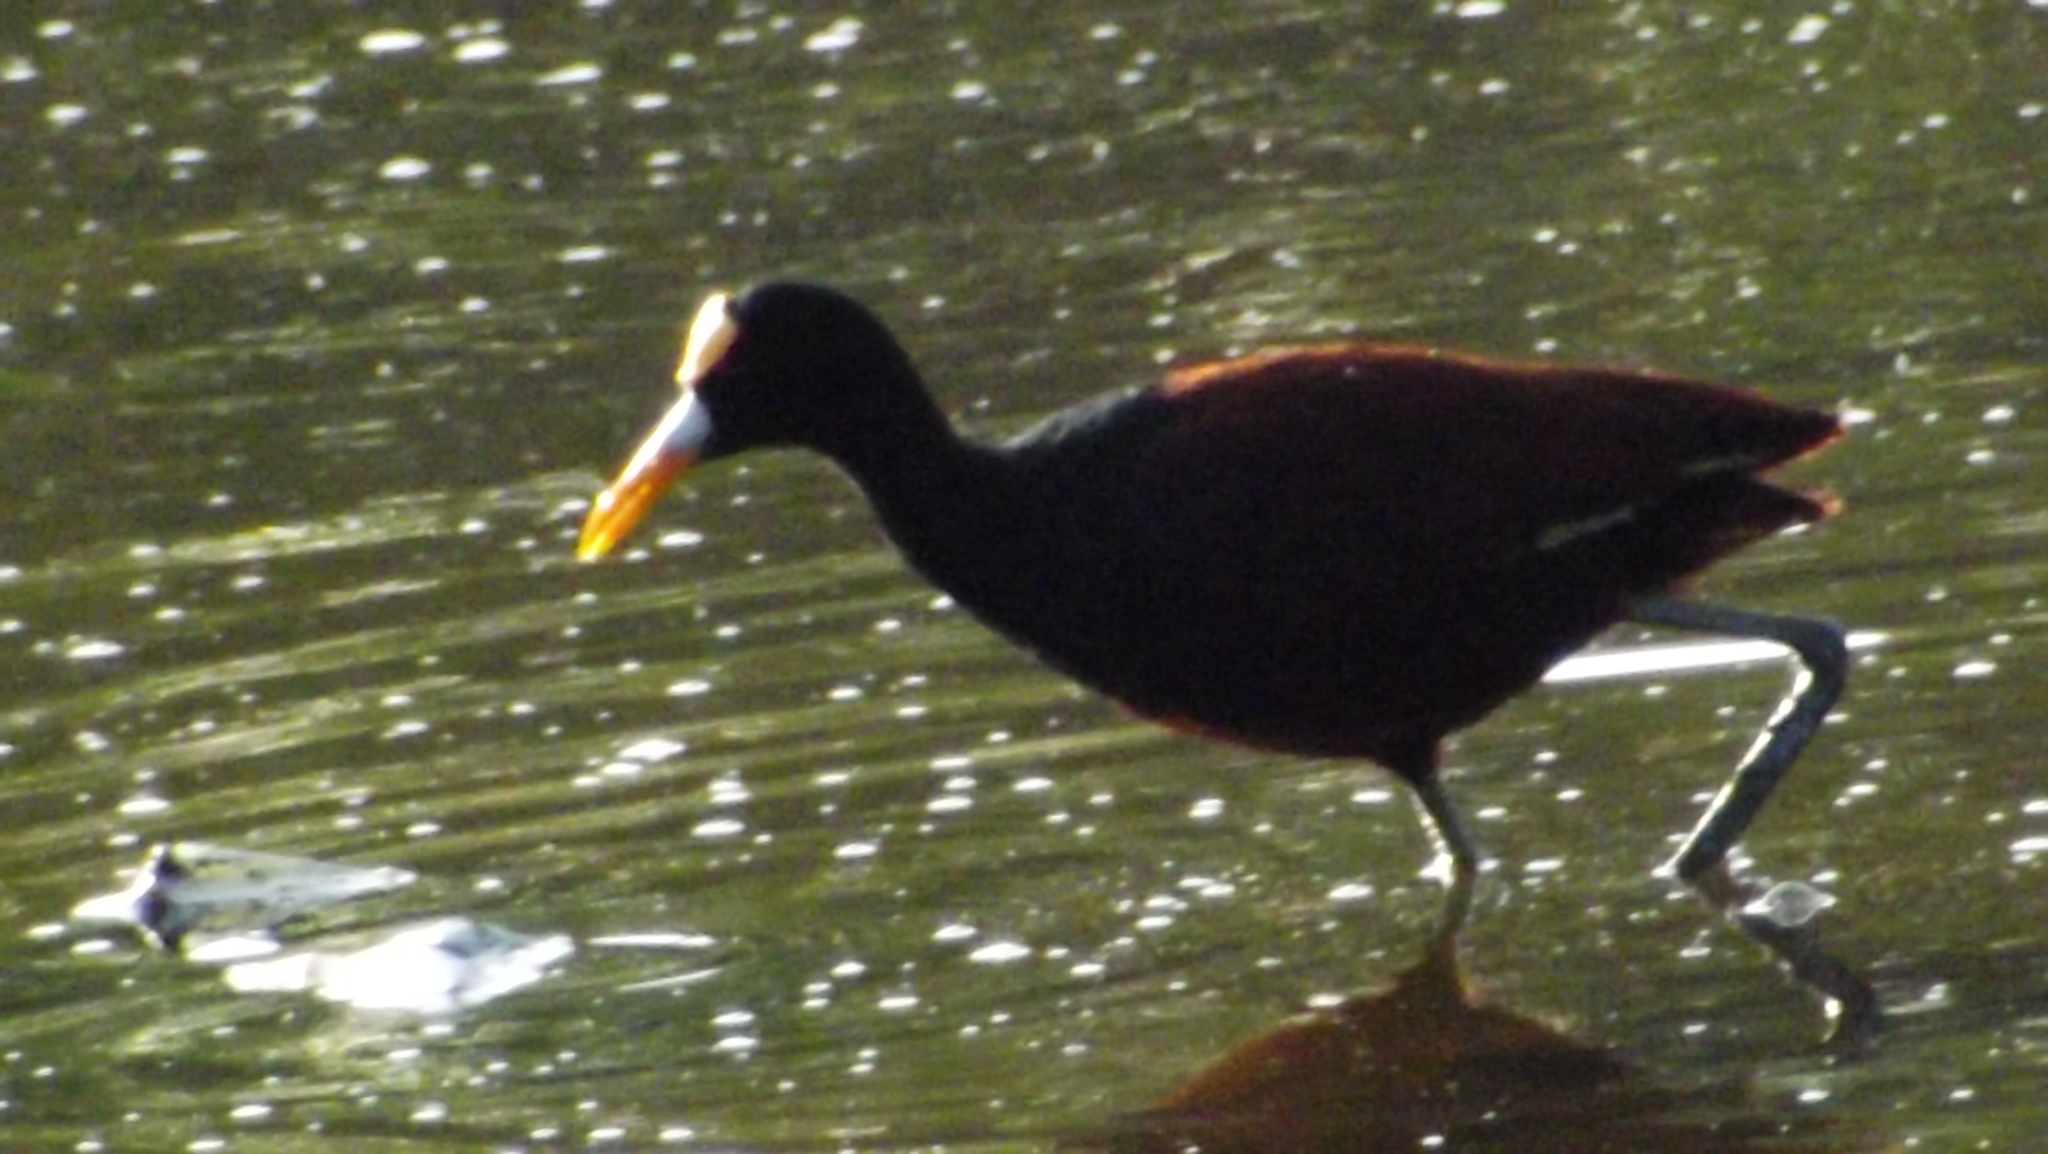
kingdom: Animalia
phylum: Chordata
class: Aves
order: Charadriiformes
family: Jacanidae
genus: Jacana
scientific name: Jacana spinosa
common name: Northern jacana
